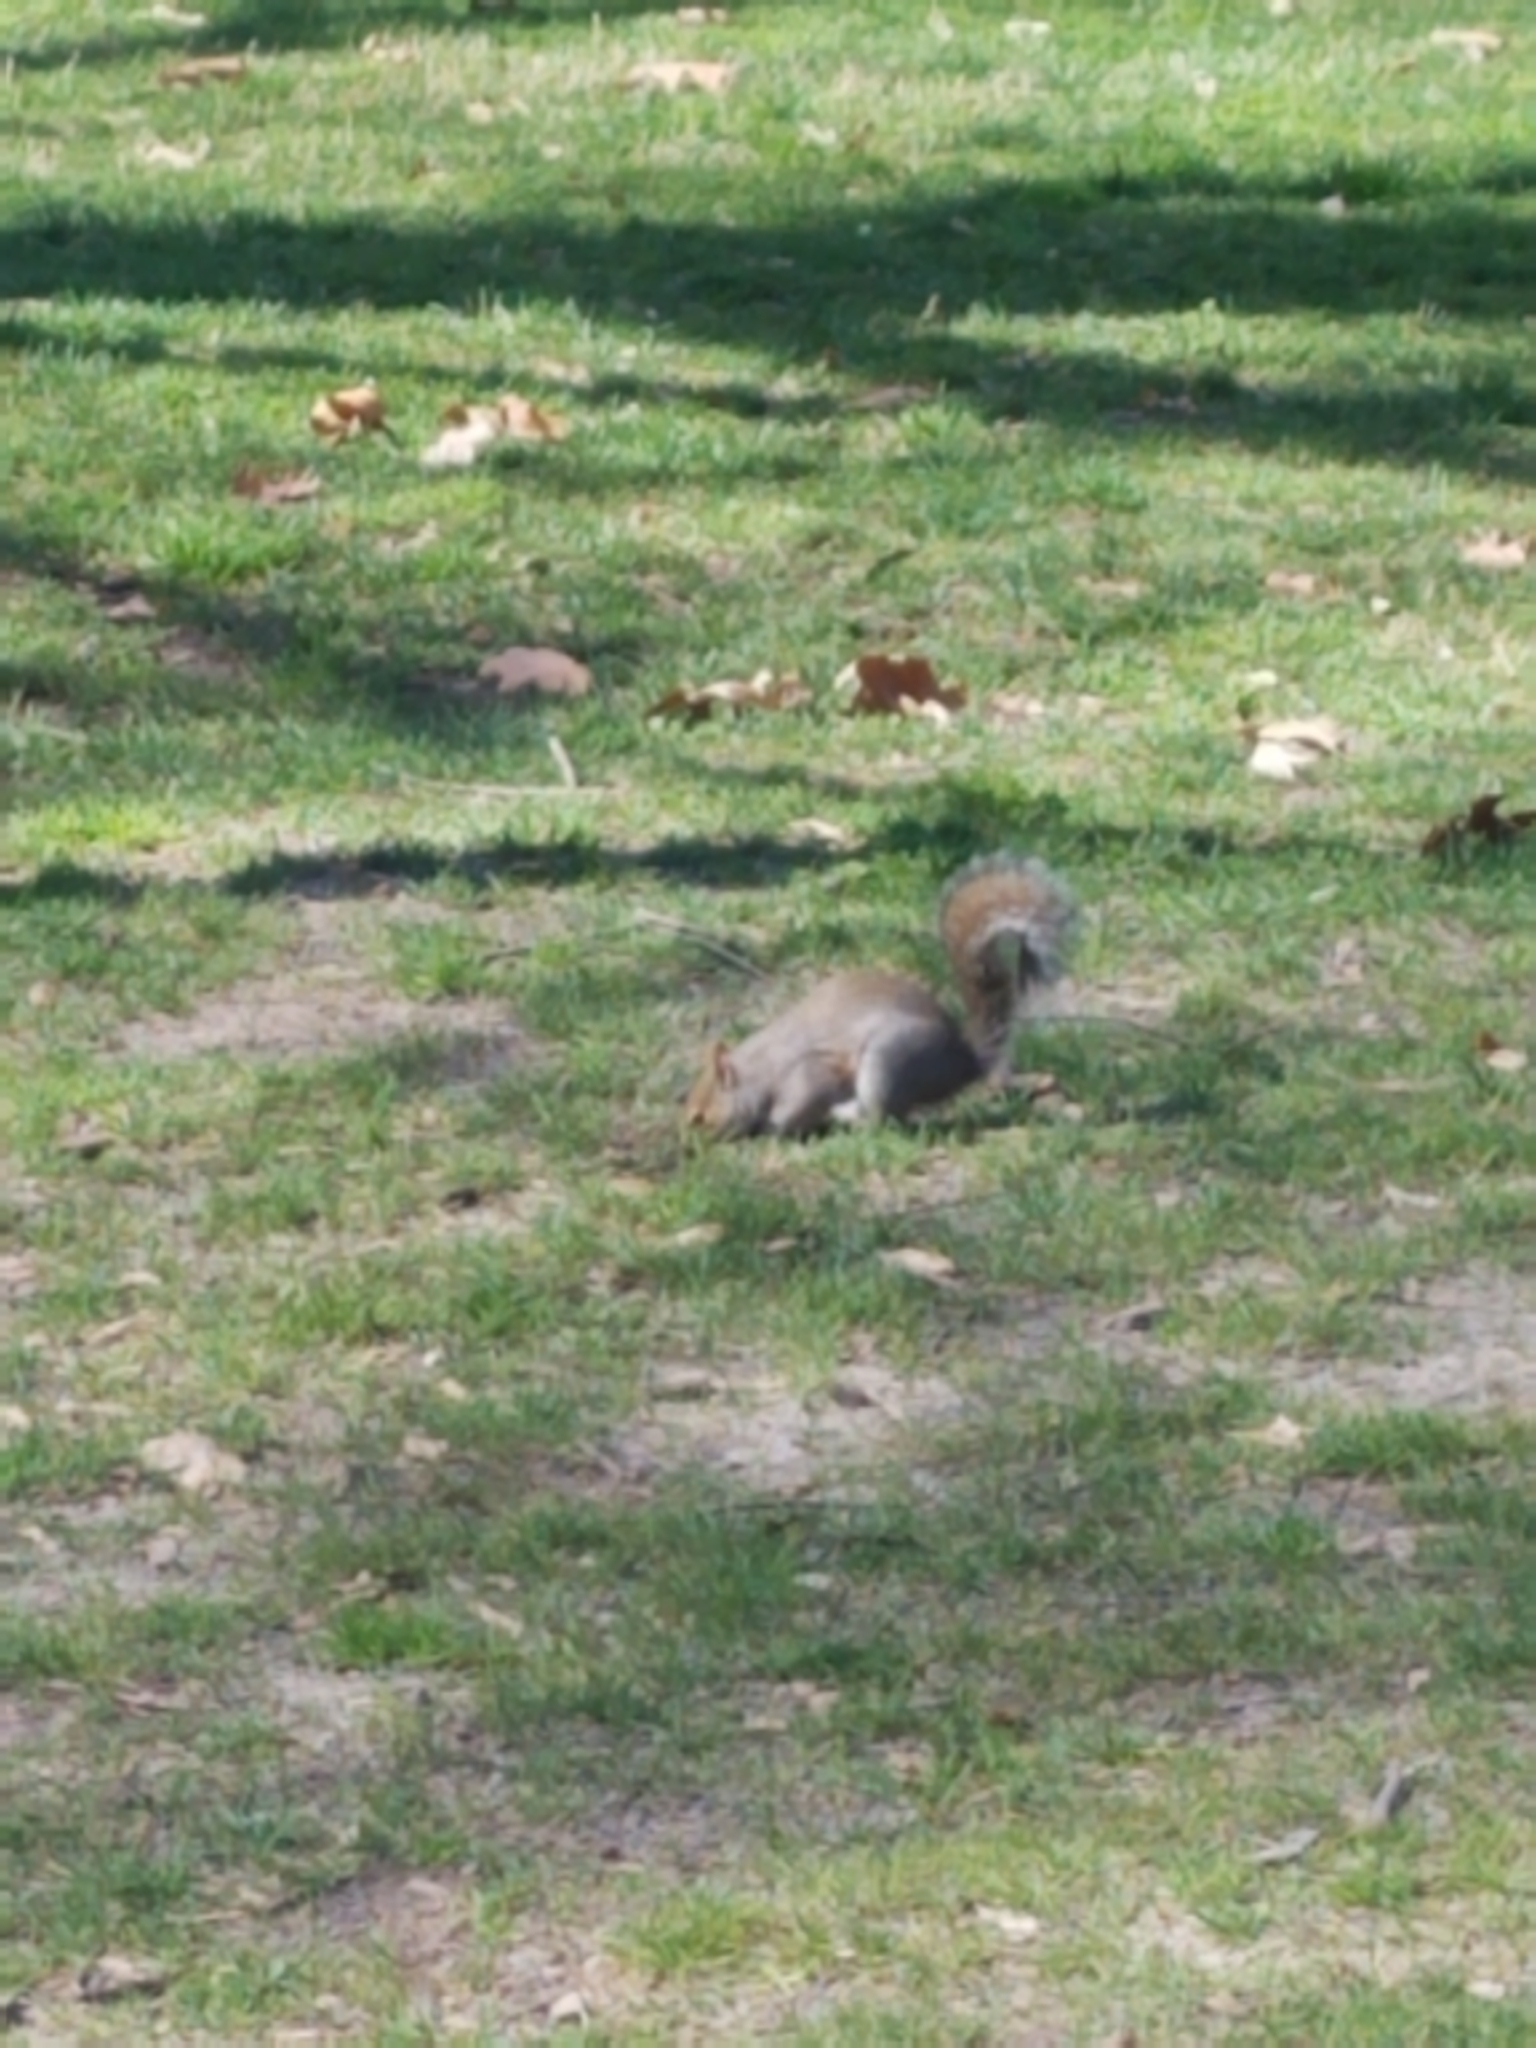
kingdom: Animalia
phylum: Chordata
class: Mammalia
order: Rodentia
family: Sciuridae
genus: Sciurus
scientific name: Sciurus carolinensis
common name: Eastern gray squirrel
